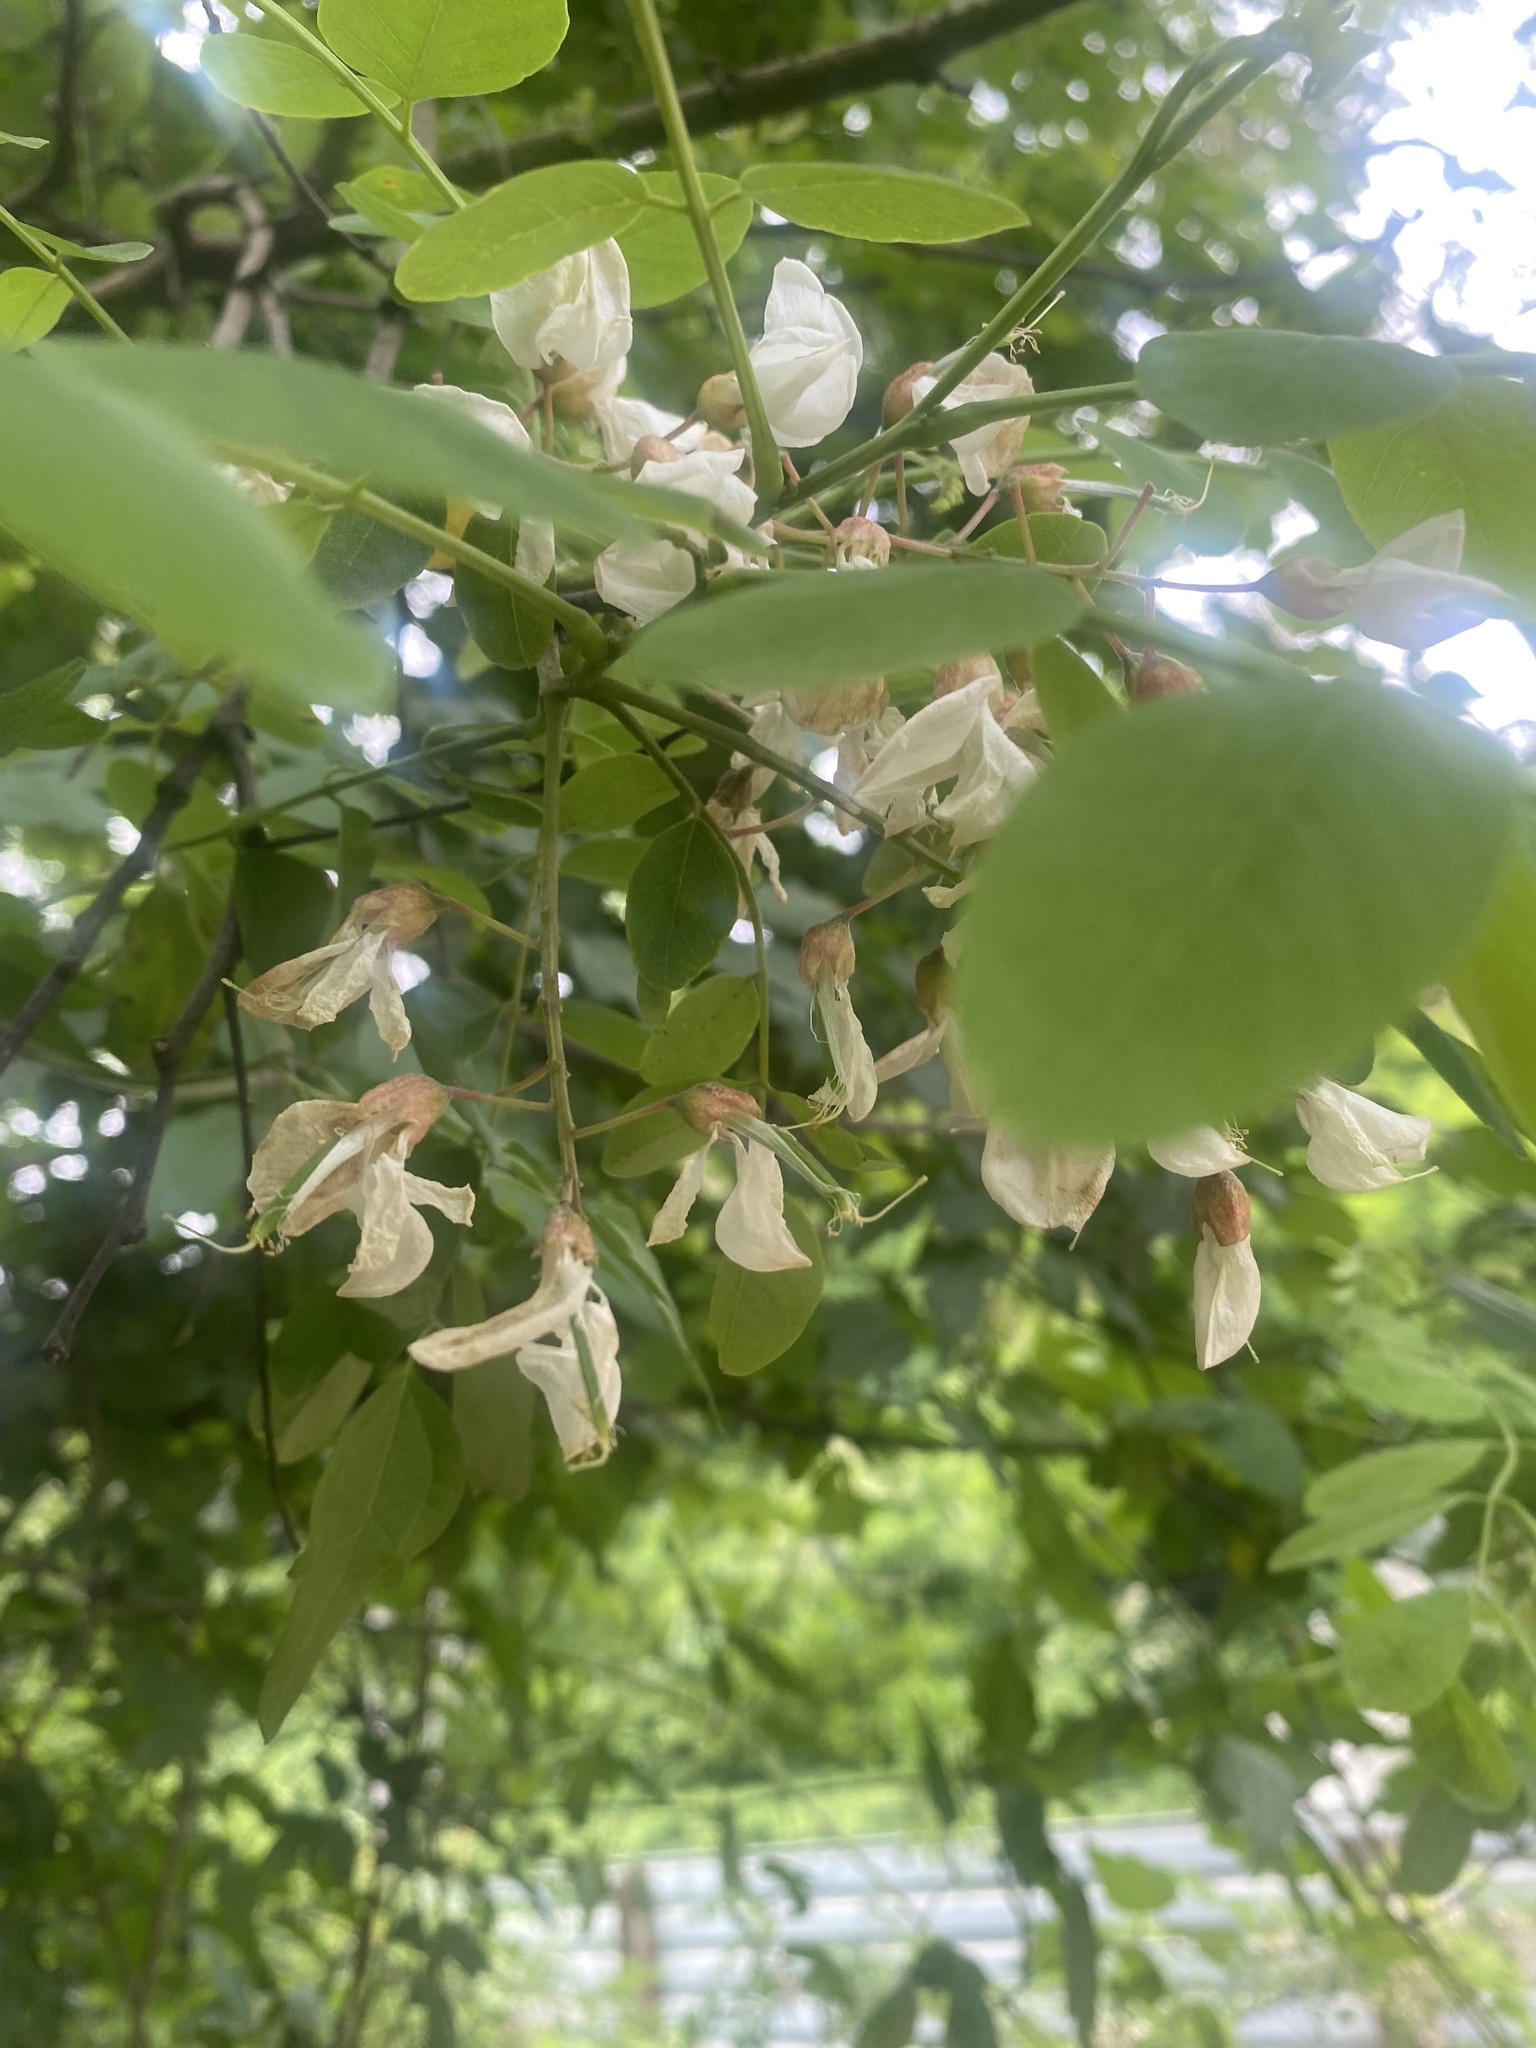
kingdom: Plantae
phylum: Tracheophyta
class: Magnoliopsida
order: Fabales
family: Fabaceae
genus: Robinia
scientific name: Robinia pseudoacacia
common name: Black locust
